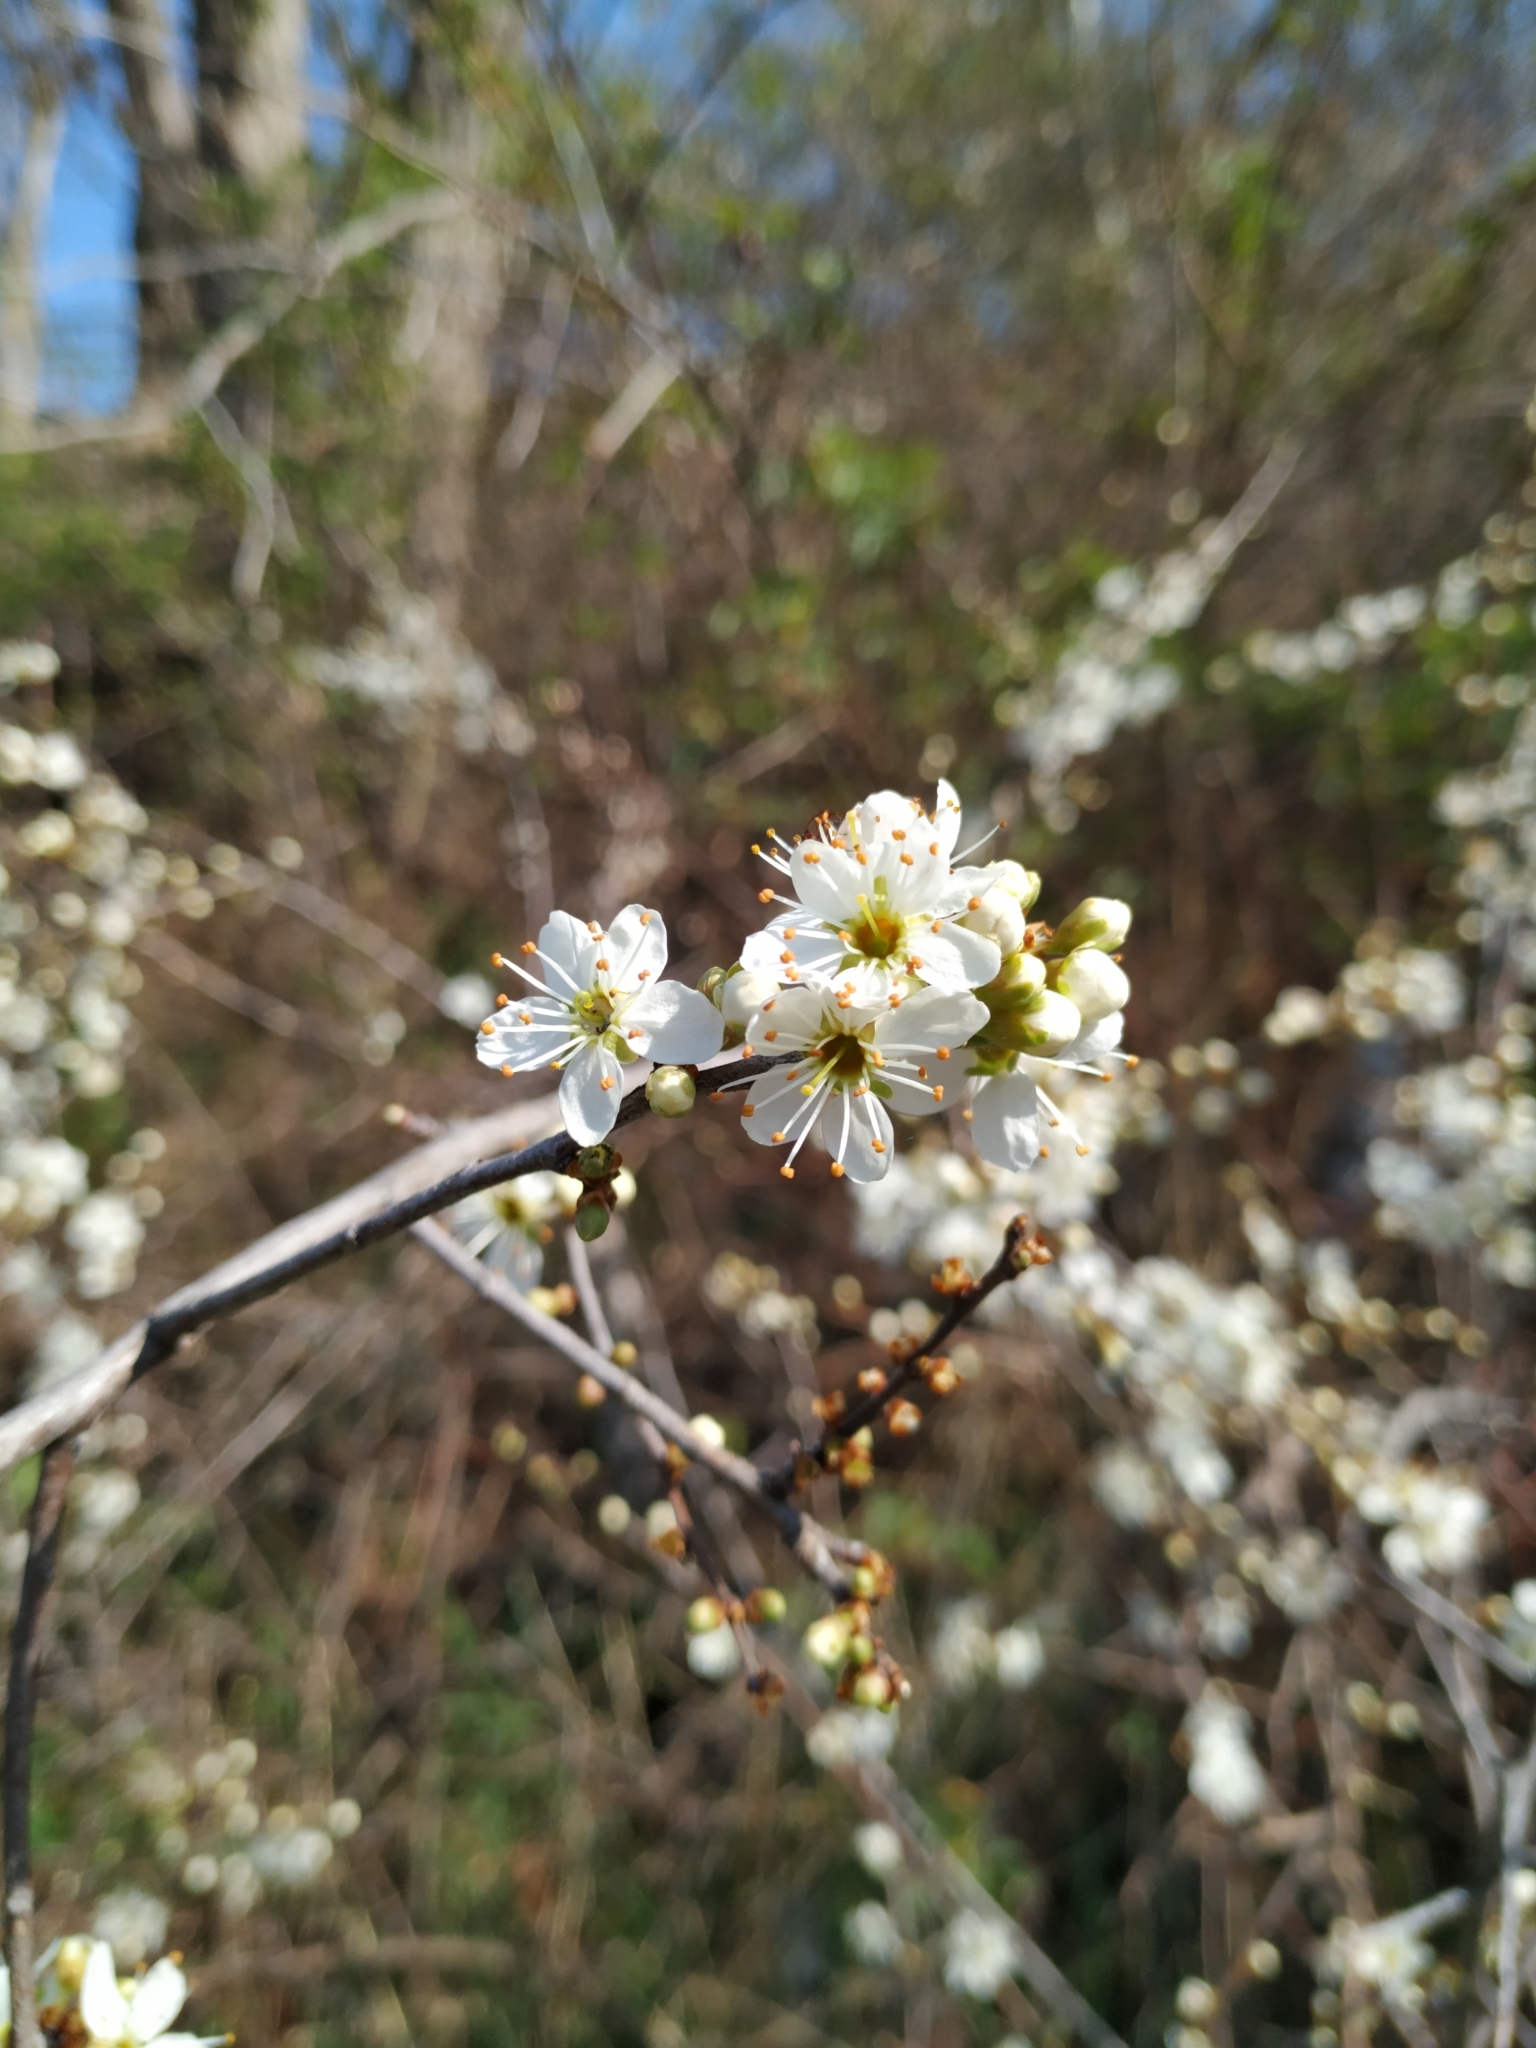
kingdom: Plantae
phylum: Tracheophyta
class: Magnoliopsida
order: Rosales
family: Rosaceae
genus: Prunus
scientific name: Prunus spinosa
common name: Blackthorn
